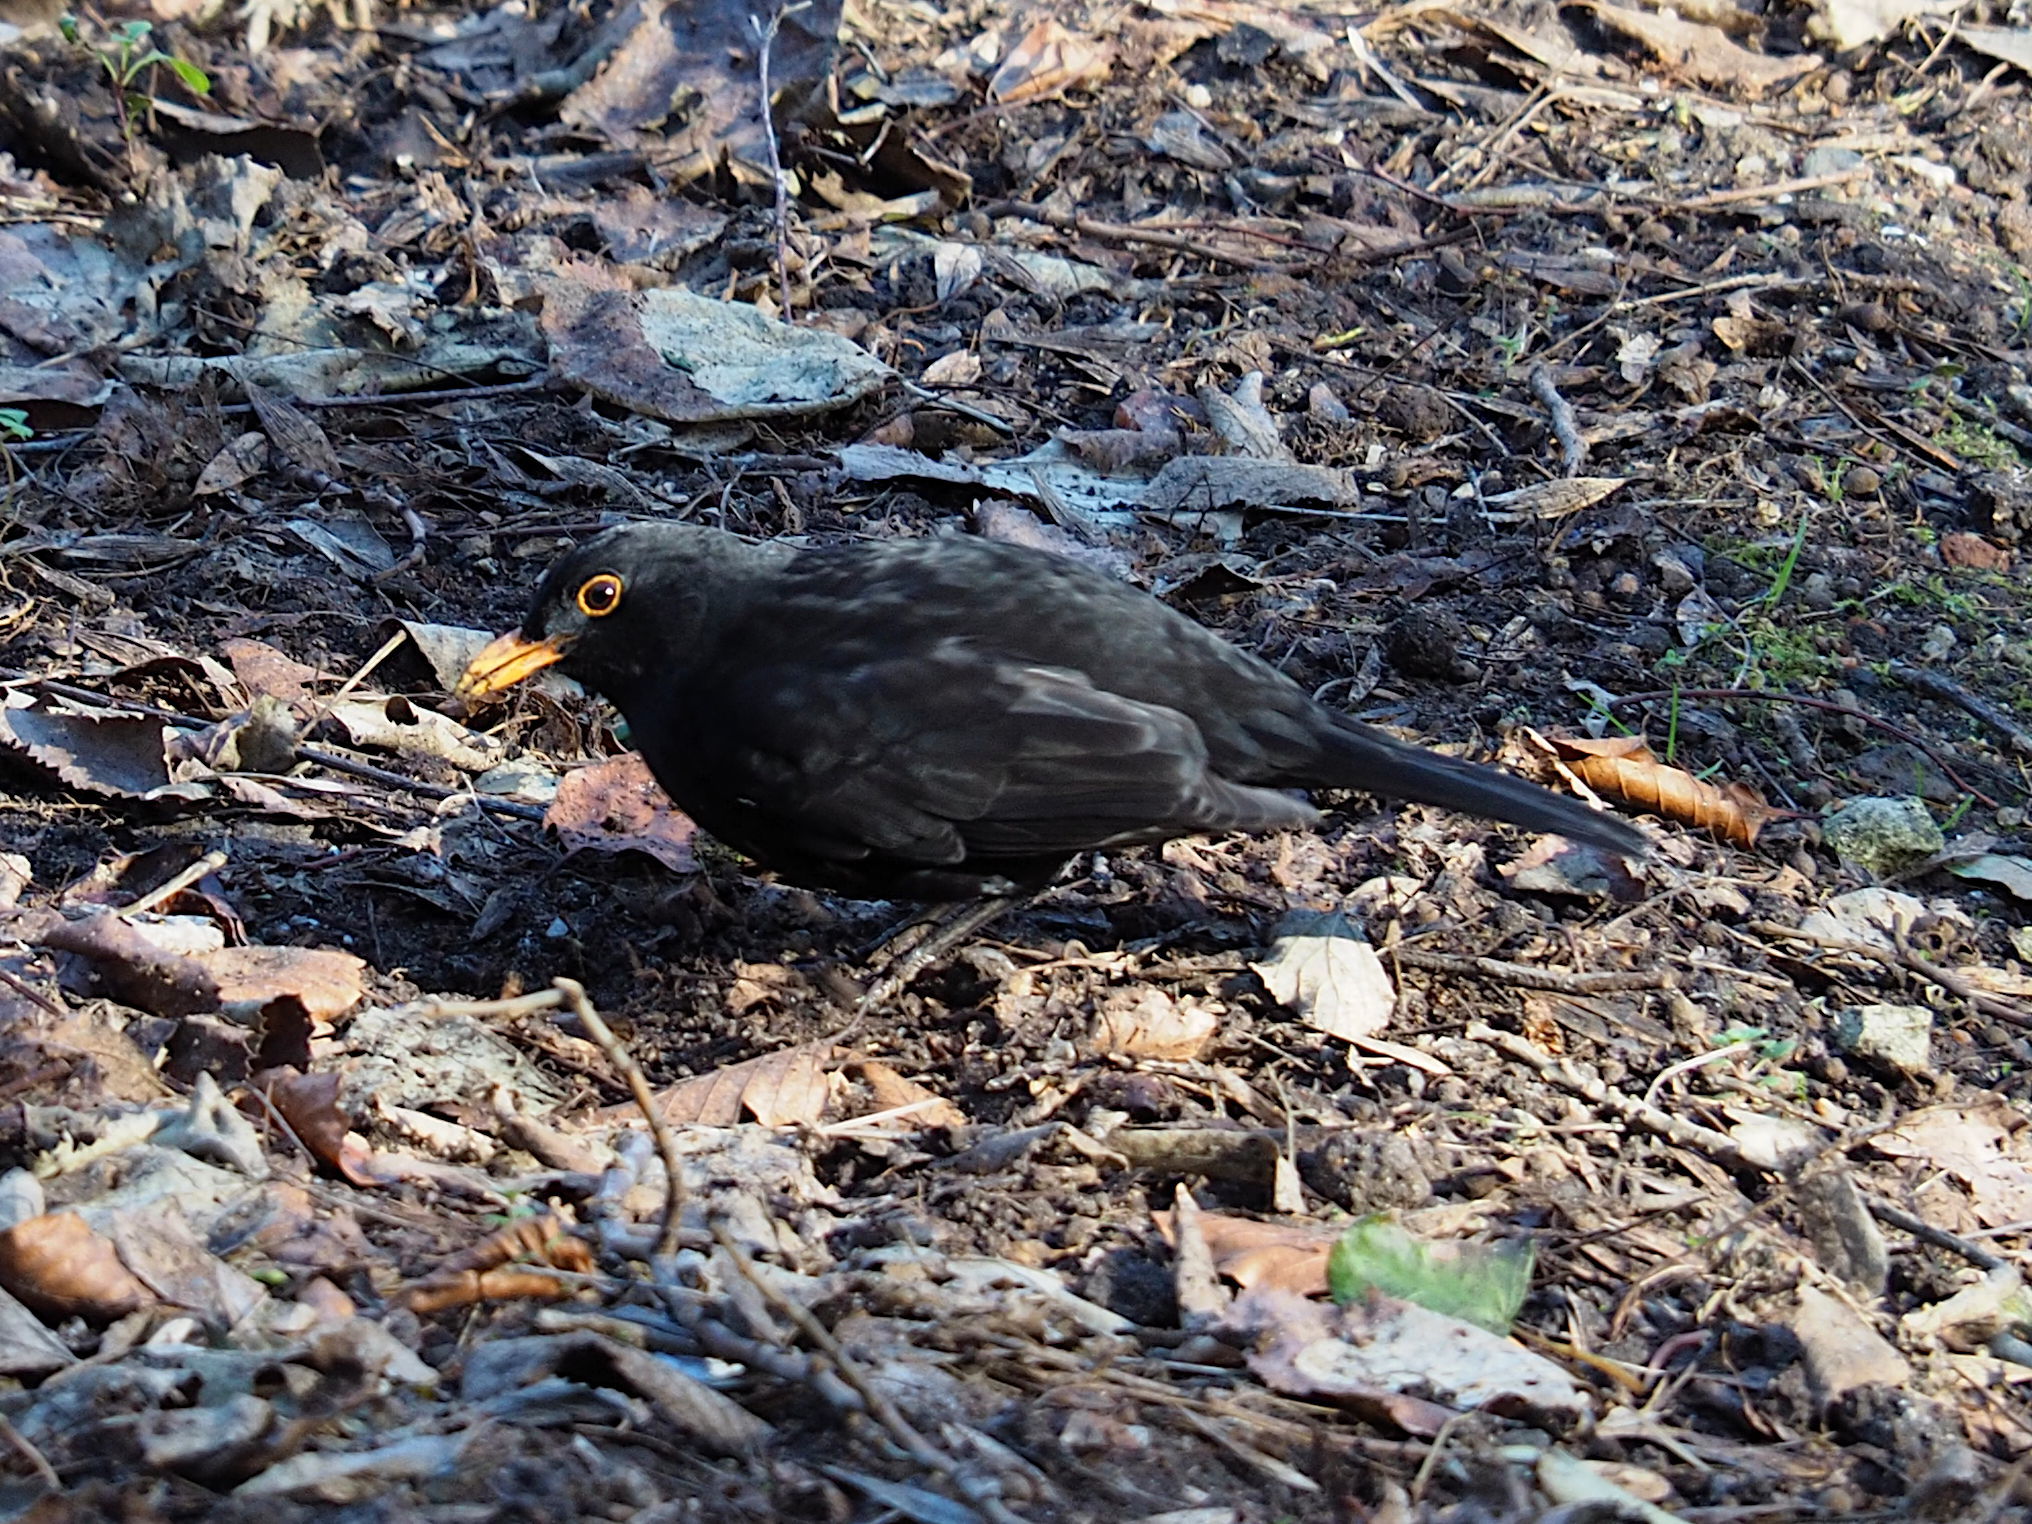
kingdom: Animalia
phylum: Chordata
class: Aves
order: Passeriformes
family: Turdidae
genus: Turdus
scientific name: Turdus merula
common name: Common blackbird
